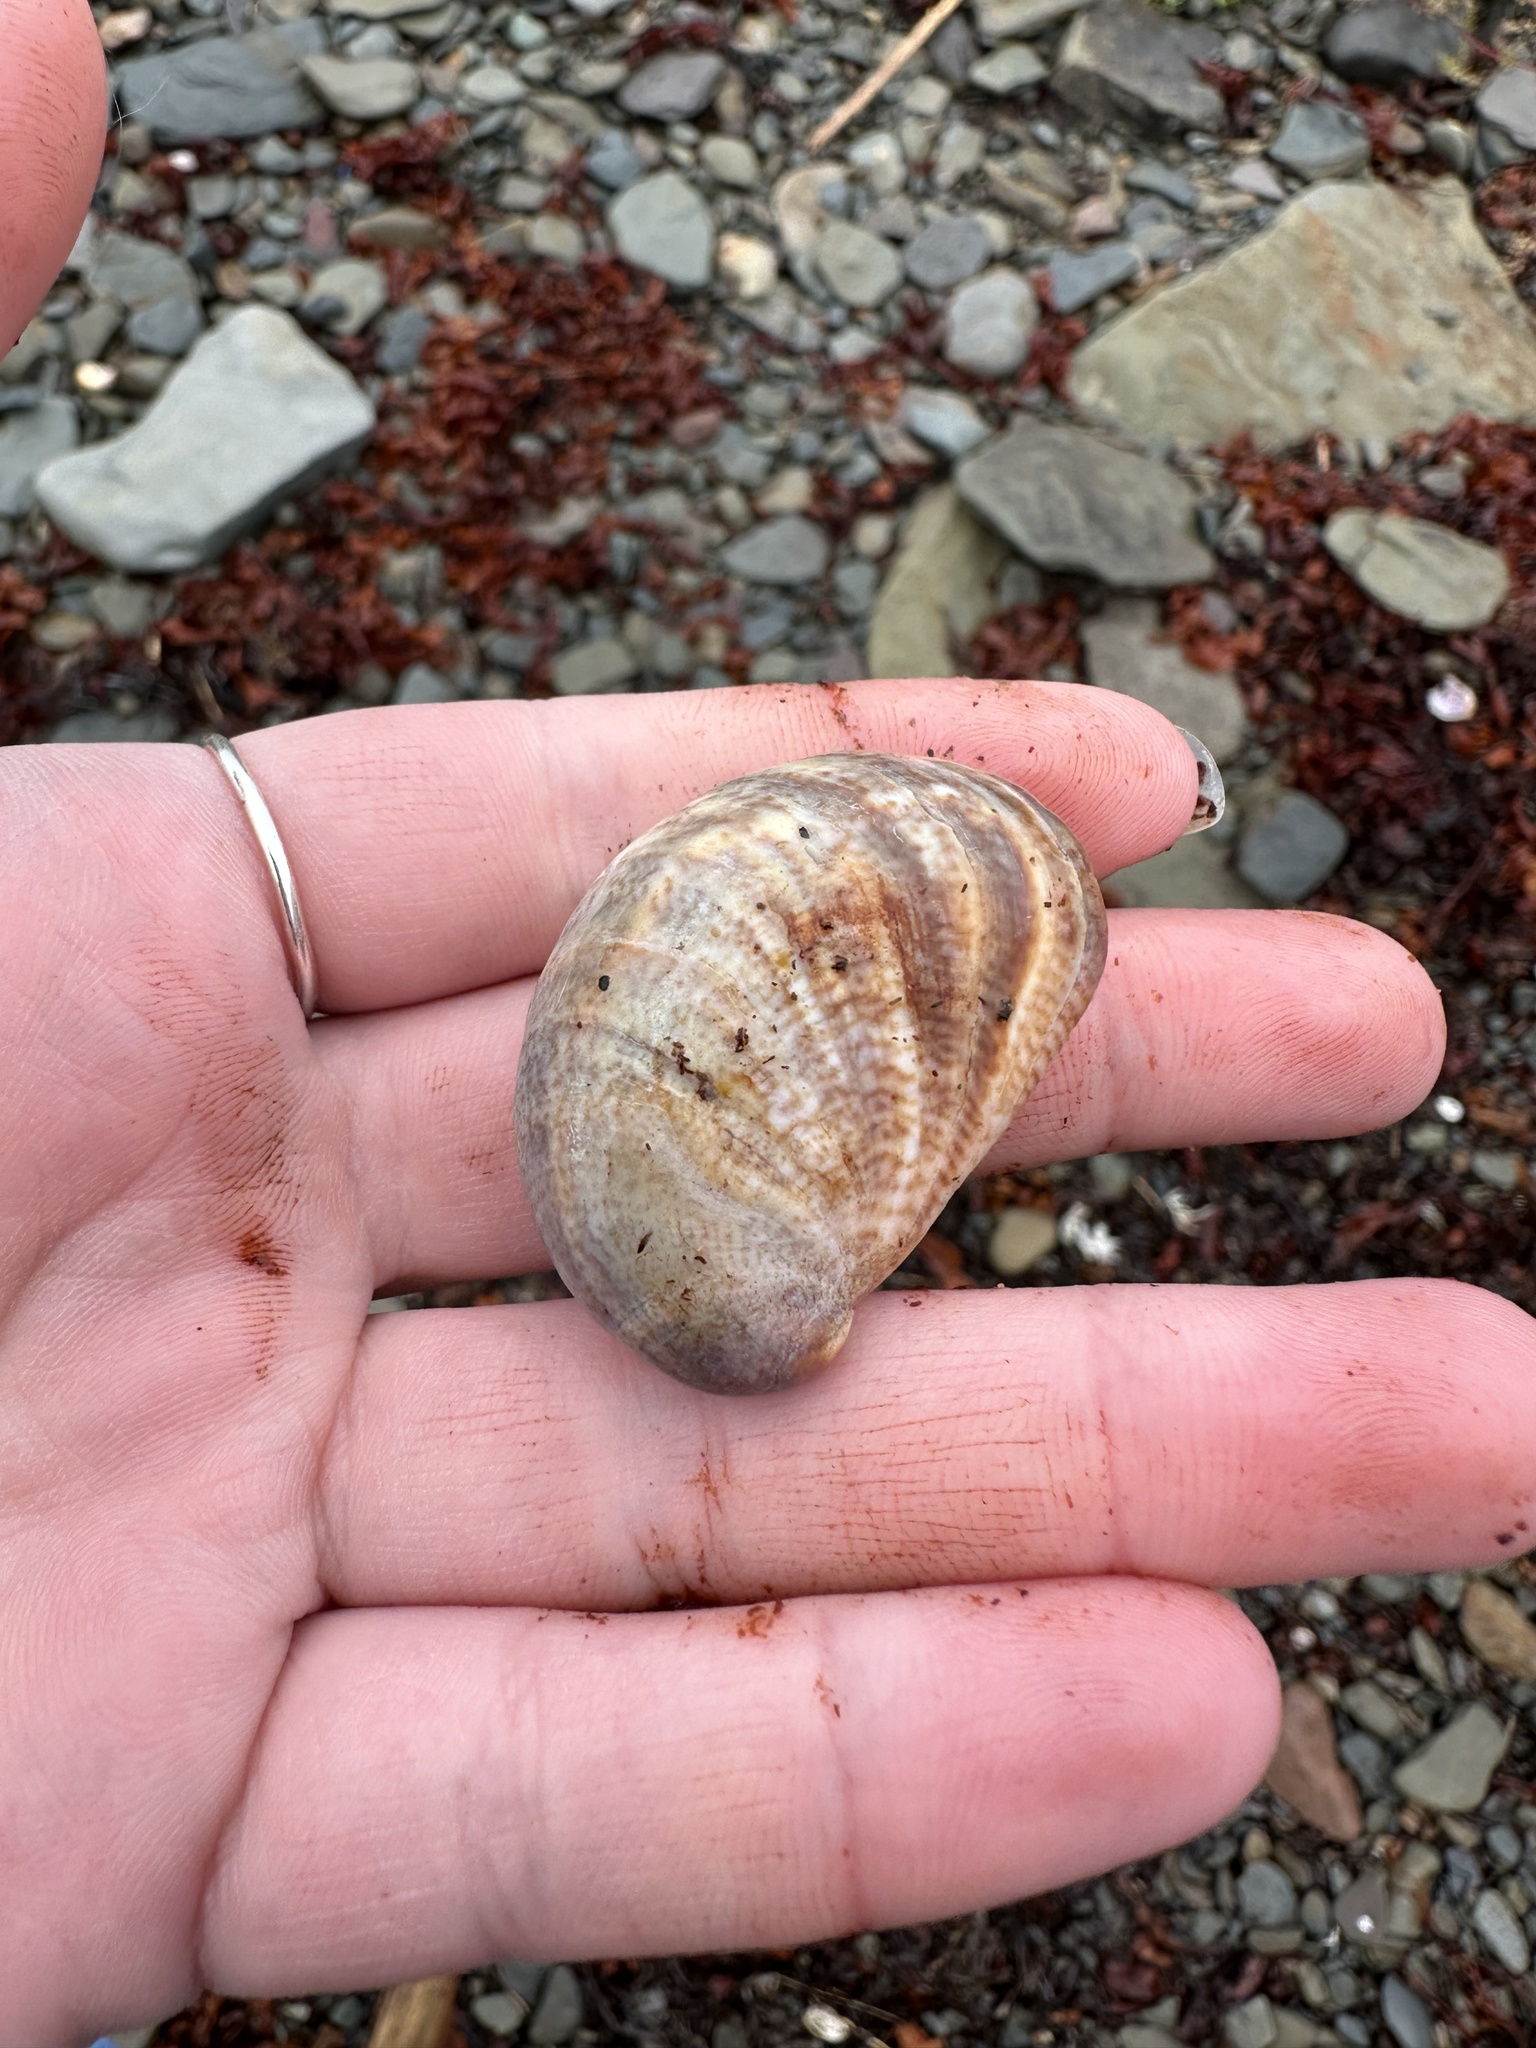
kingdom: Animalia
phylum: Mollusca
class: Gastropoda
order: Littorinimorpha
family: Calyptraeidae
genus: Crepidula
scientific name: Crepidula fornicata
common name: Slipper limpet
